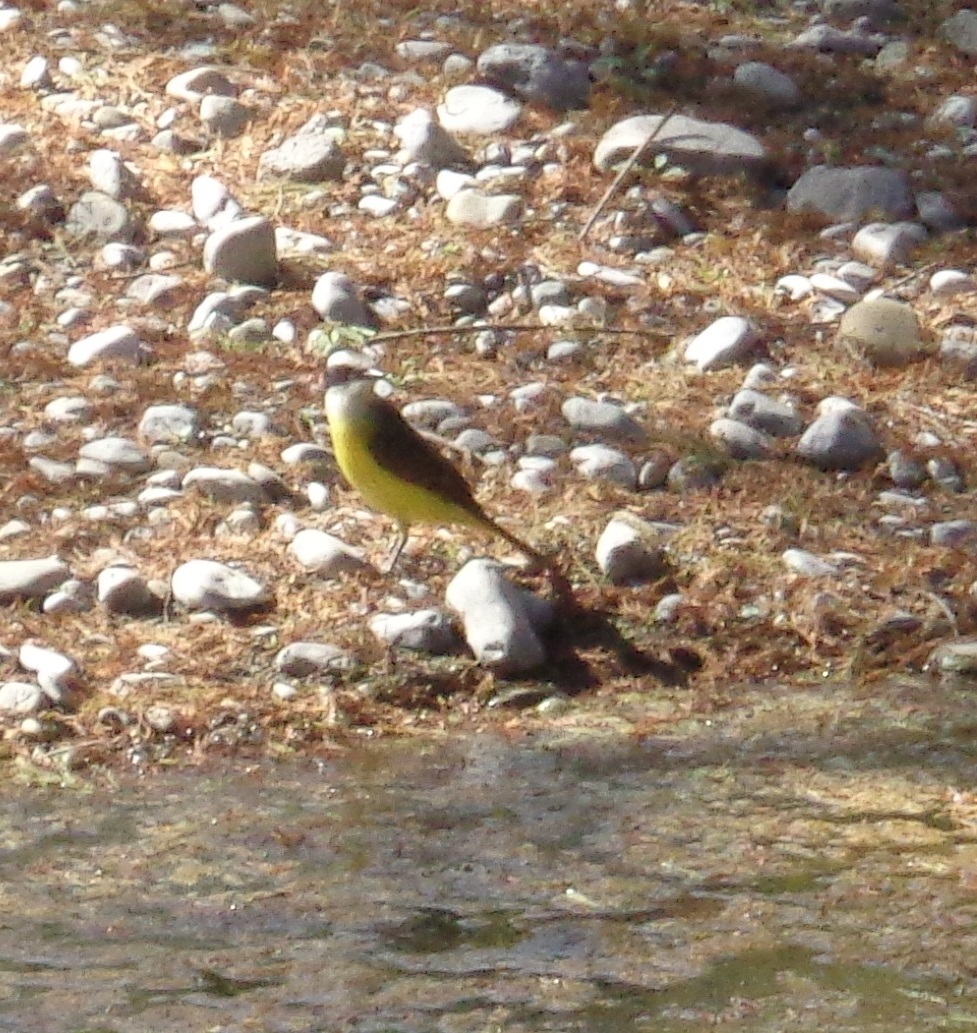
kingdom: Animalia
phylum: Chordata
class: Aves
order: Passeriformes
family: Tyrannidae
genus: Pitangus
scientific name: Pitangus sulphuratus
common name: Great kiskadee
